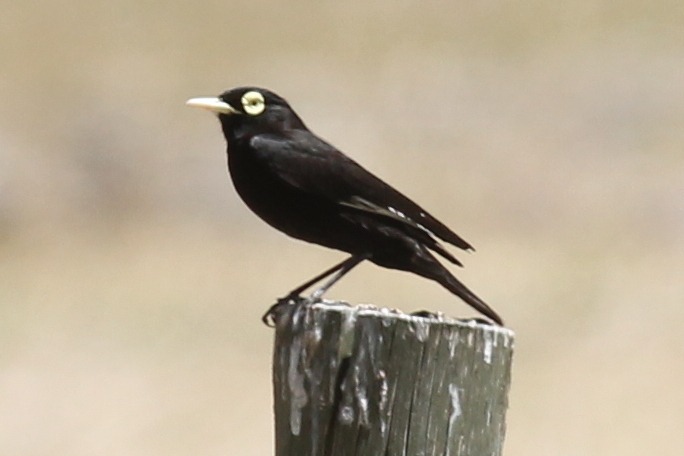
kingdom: Animalia
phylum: Chordata
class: Aves
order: Passeriformes
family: Tyrannidae
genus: Hymenops
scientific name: Hymenops perspicillatus
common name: Spectacled tyrant
